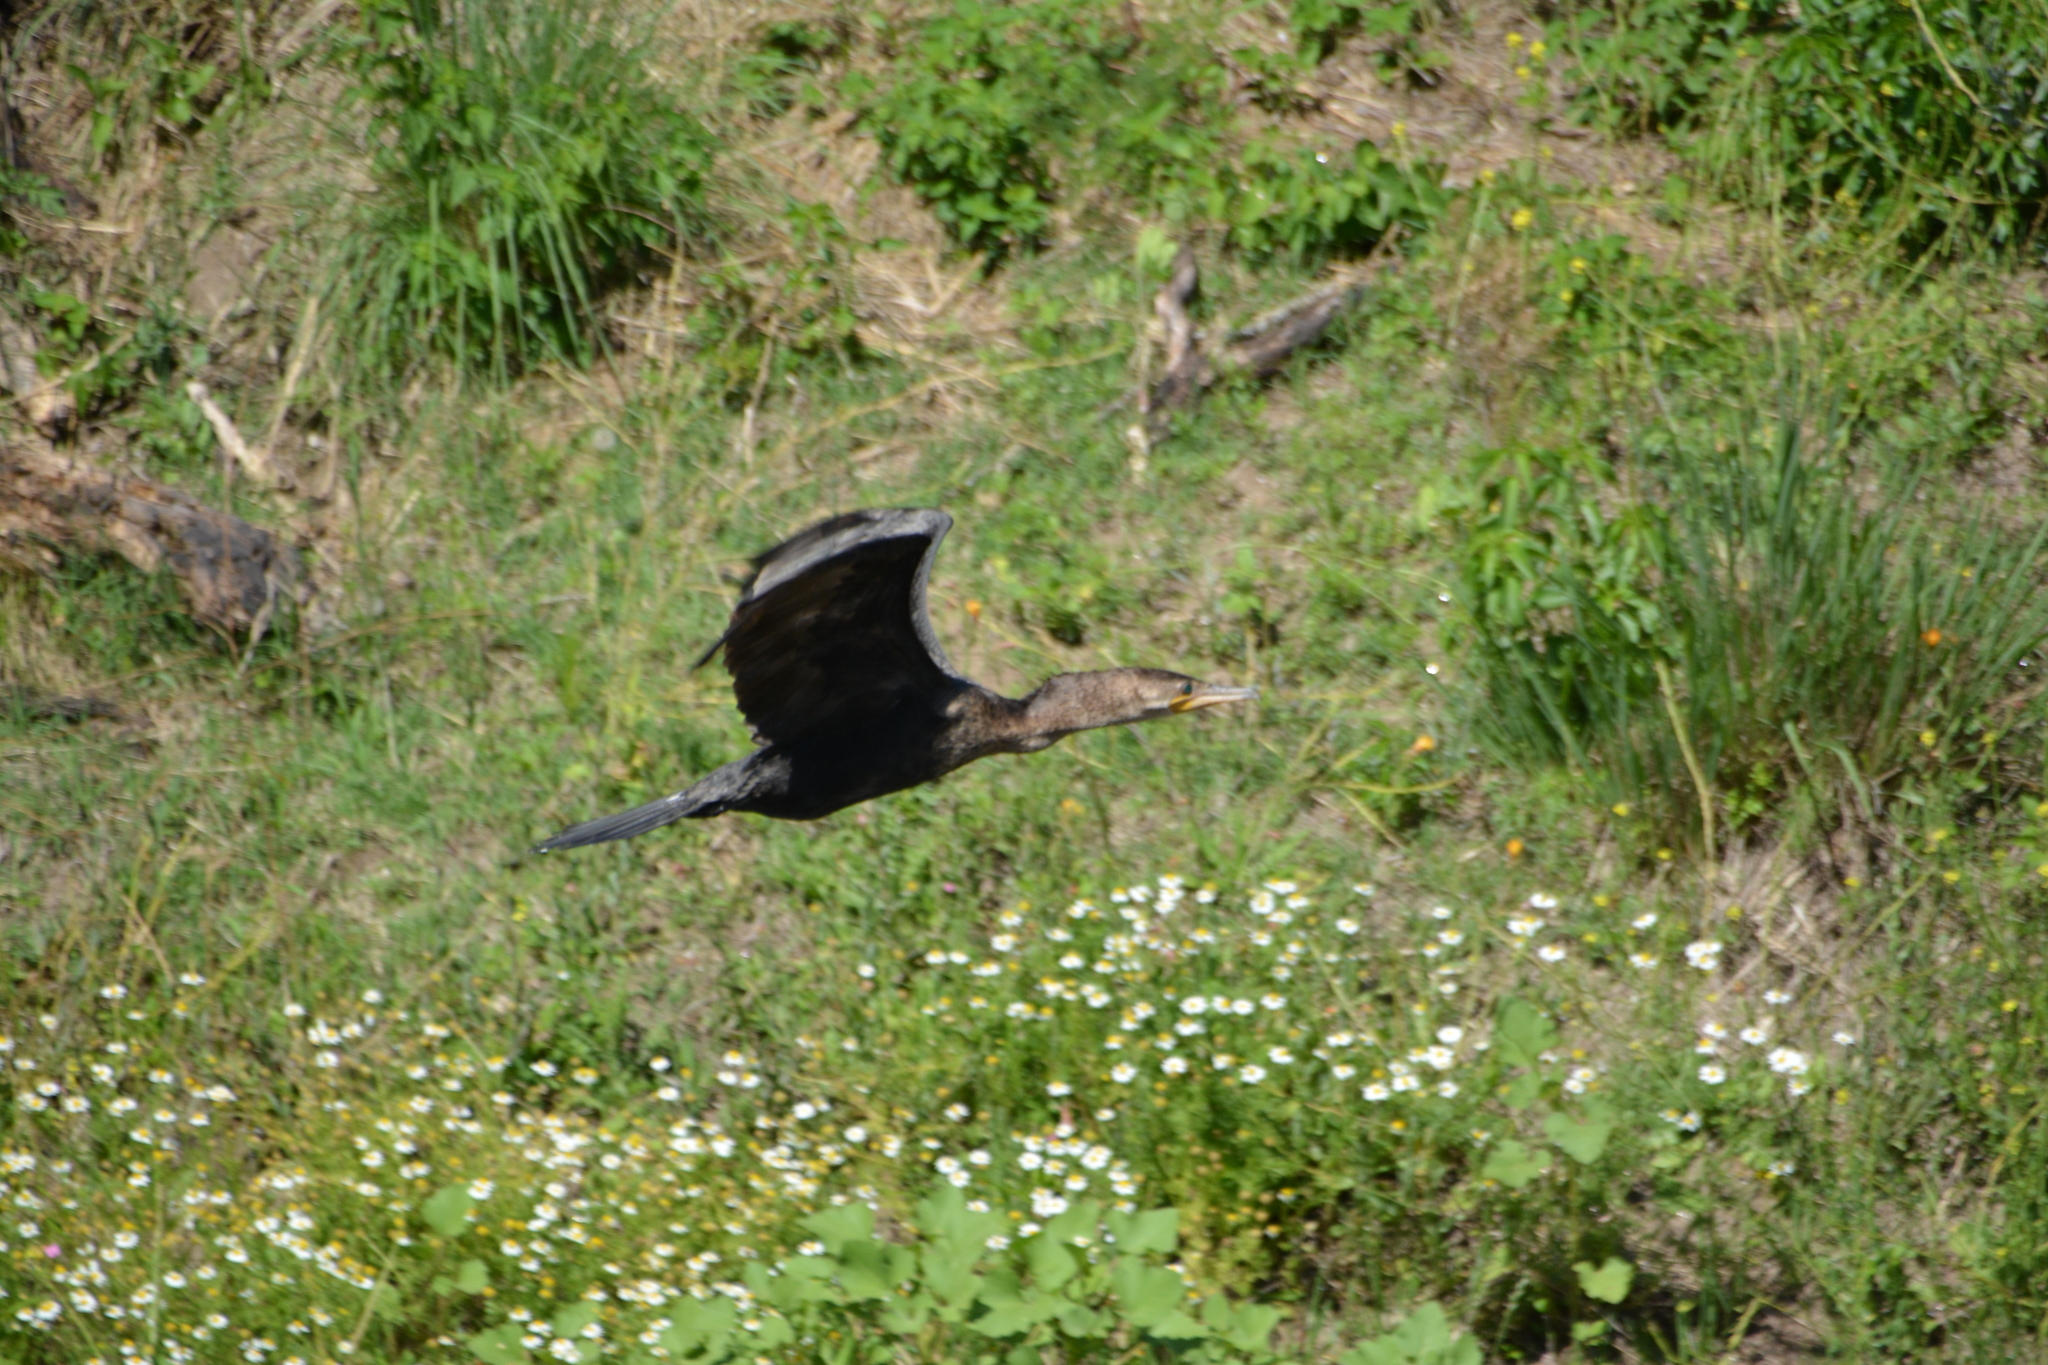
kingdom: Animalia
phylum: Chordata
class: Aves
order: Suliformes
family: Phalacrocoracidae
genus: Phalacrocorax
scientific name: Phalacrocorax brasilianus
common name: Neotropic cormorant
